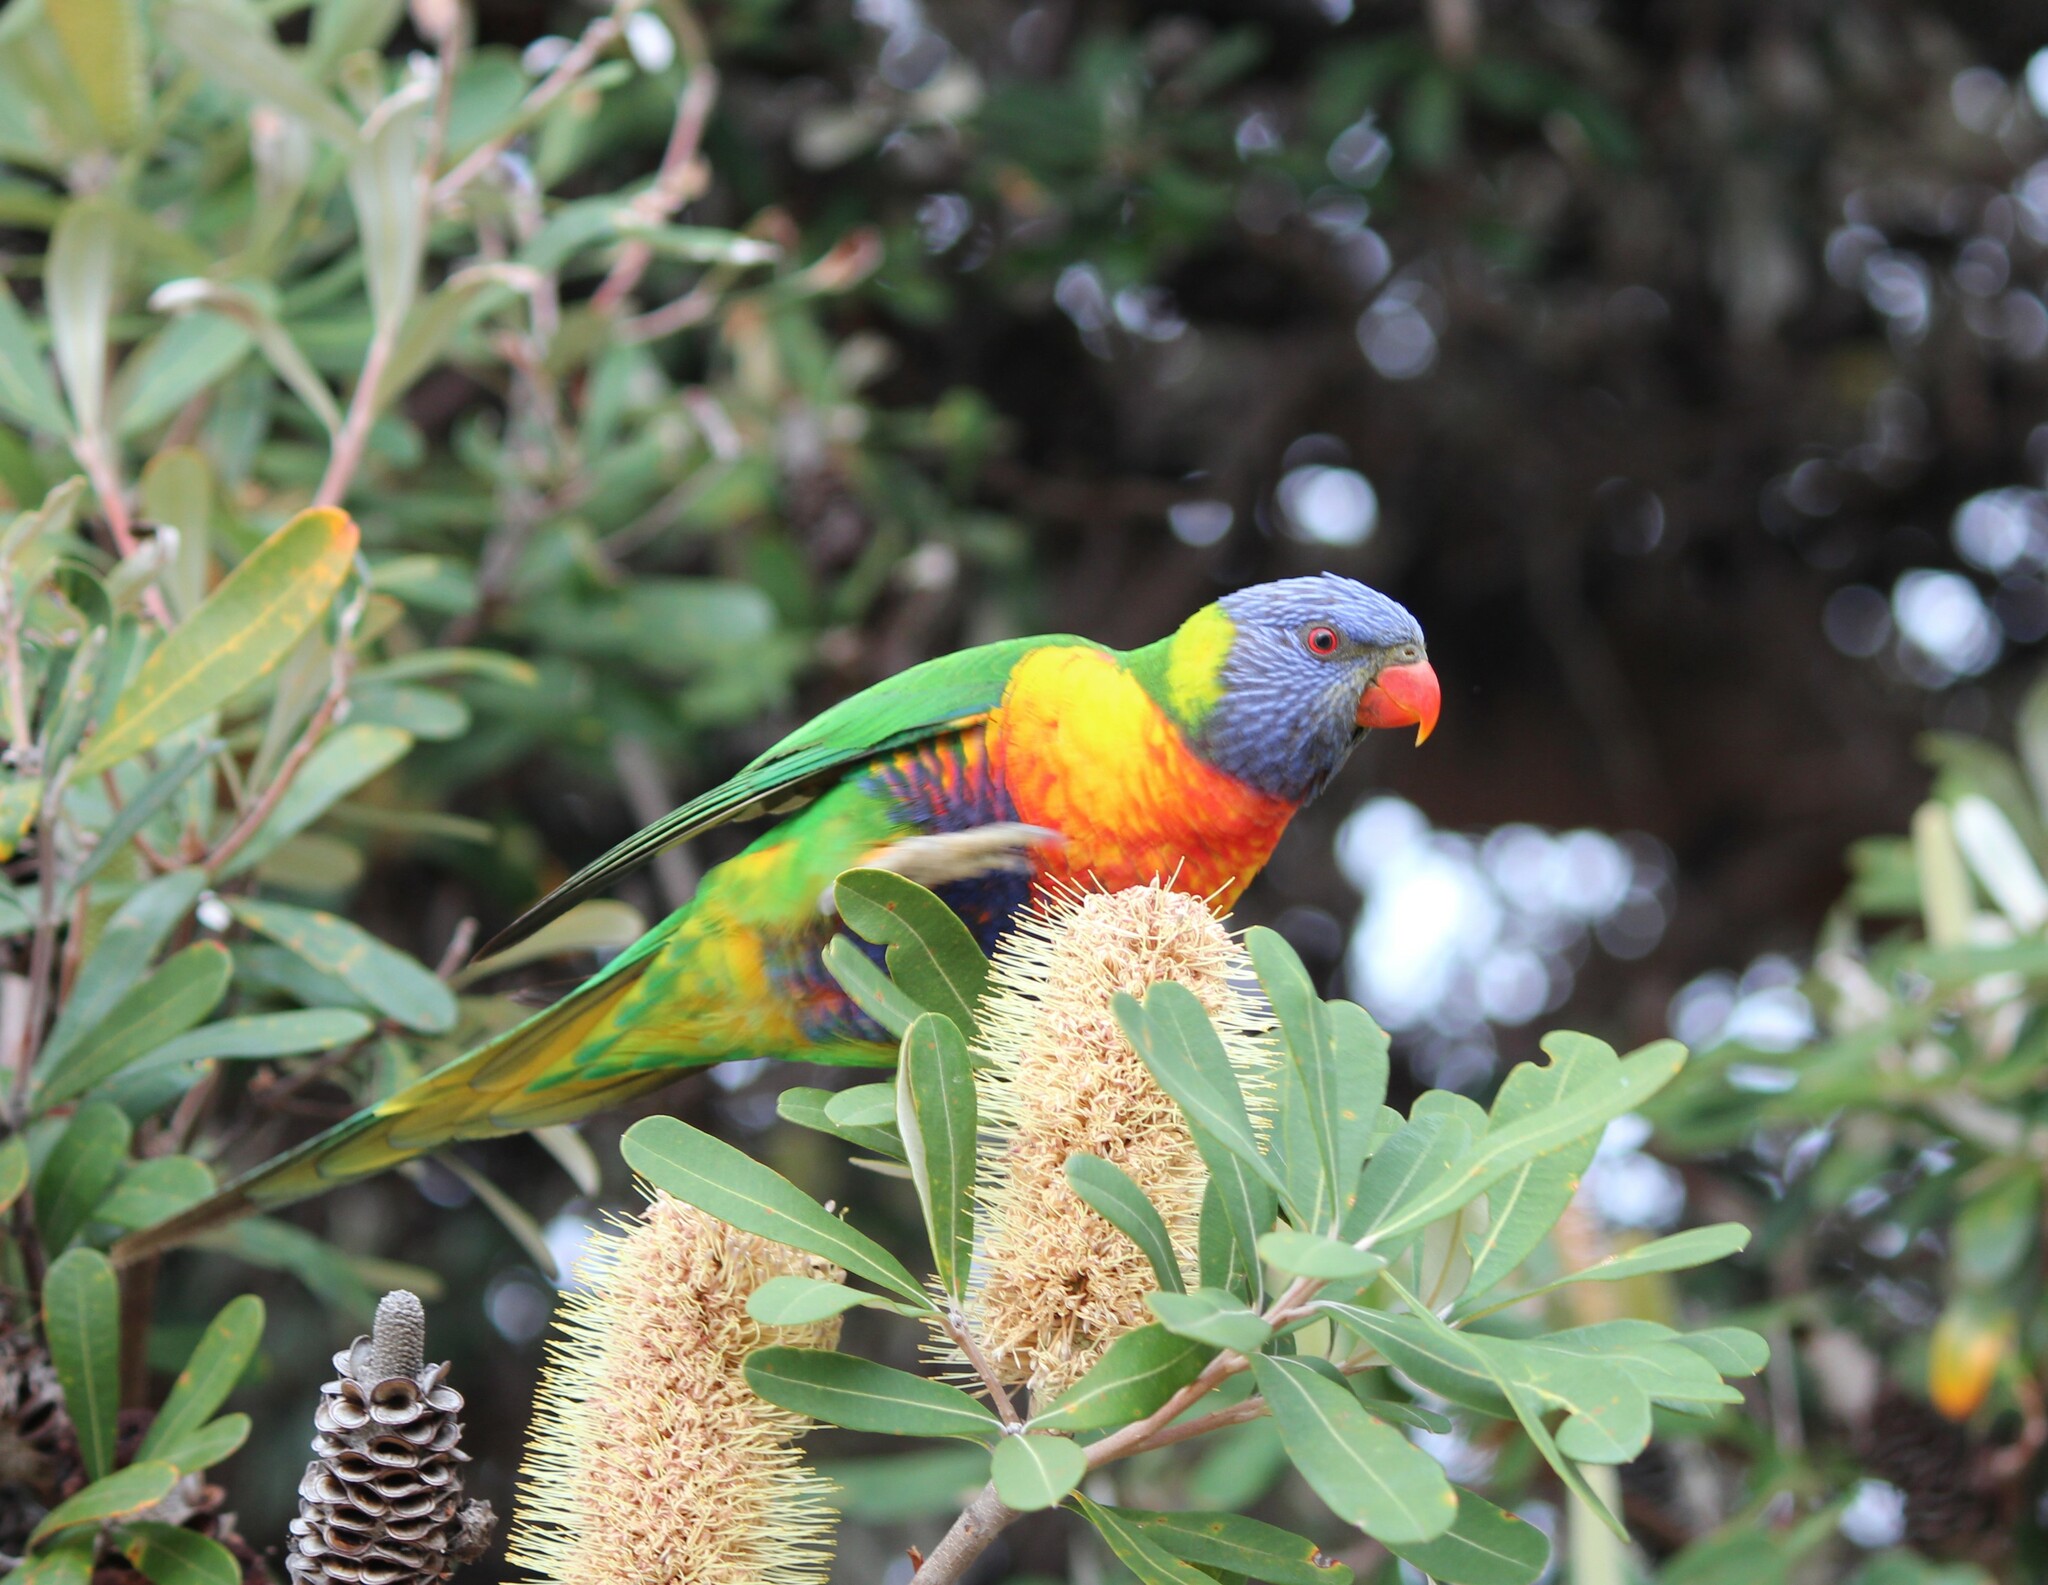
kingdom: Animalia
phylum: Chordata
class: Aves
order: Psittaciformes
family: Psittacidae
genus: Trichoglossus
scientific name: Trichoglossus haematodus
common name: Coconut lorikeet
